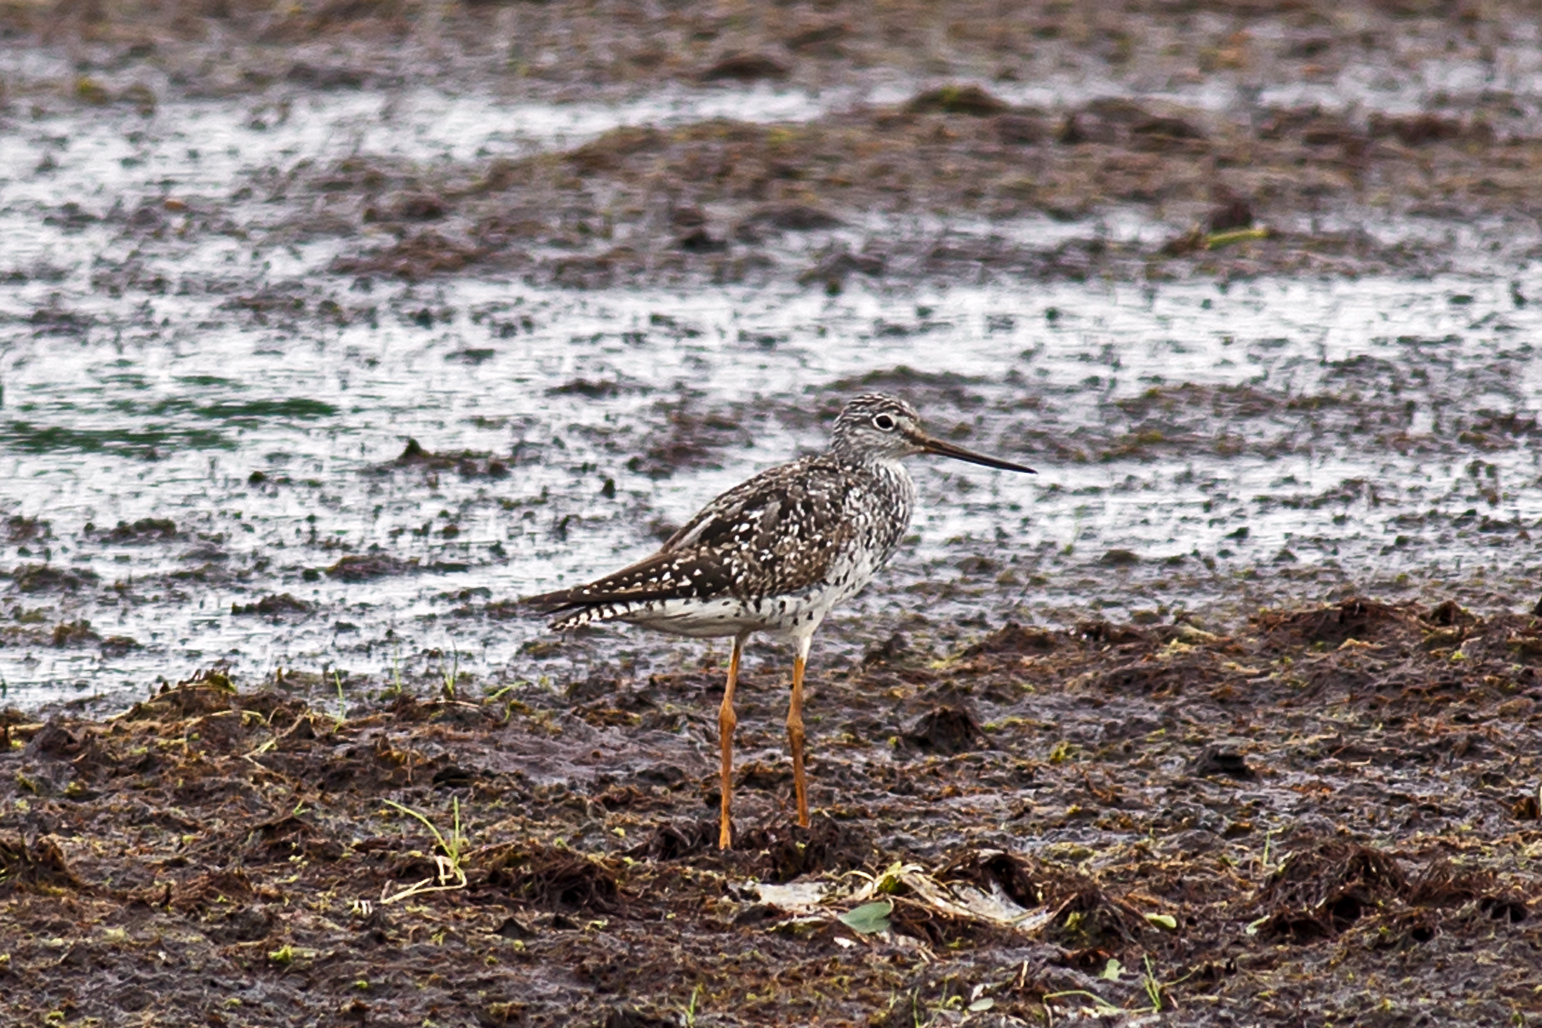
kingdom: Animalia
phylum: Chordata
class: Aves
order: Charadriiformes
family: Scolopacidae
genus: Tringa
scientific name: Tringa melanoleuca
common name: Greater yellowlegs
